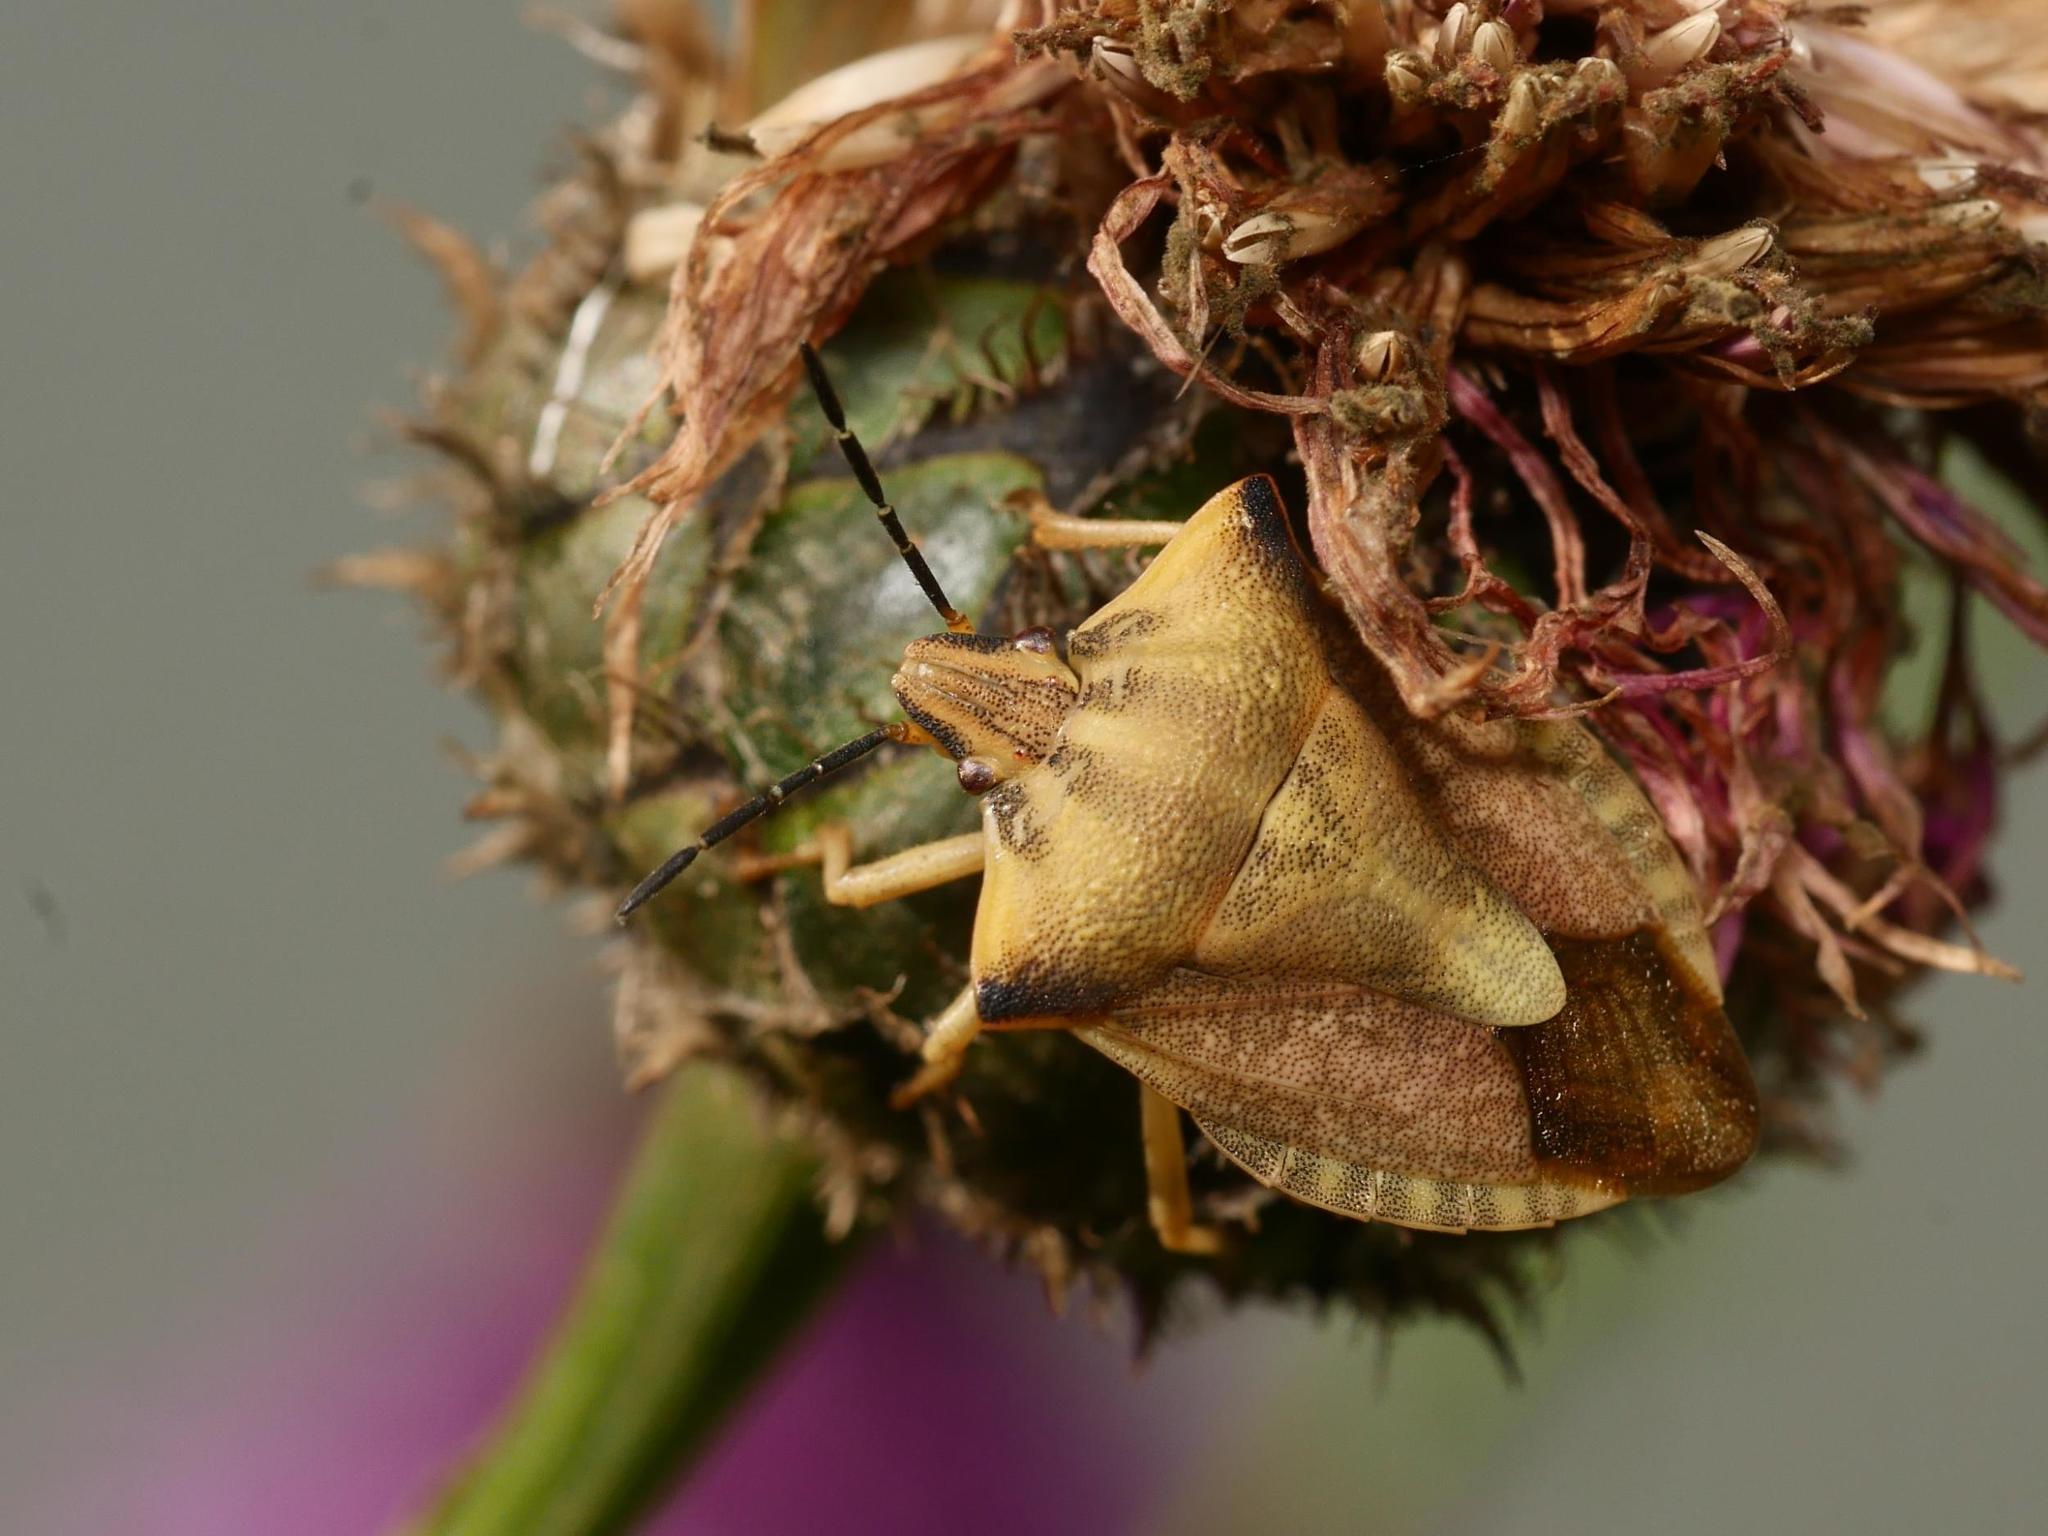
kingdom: Animalia
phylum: Arthropoda
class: Insecta
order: Hemiptera
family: Pentatomidae
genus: Carpocoris
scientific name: Carpocoris fuscispinus
